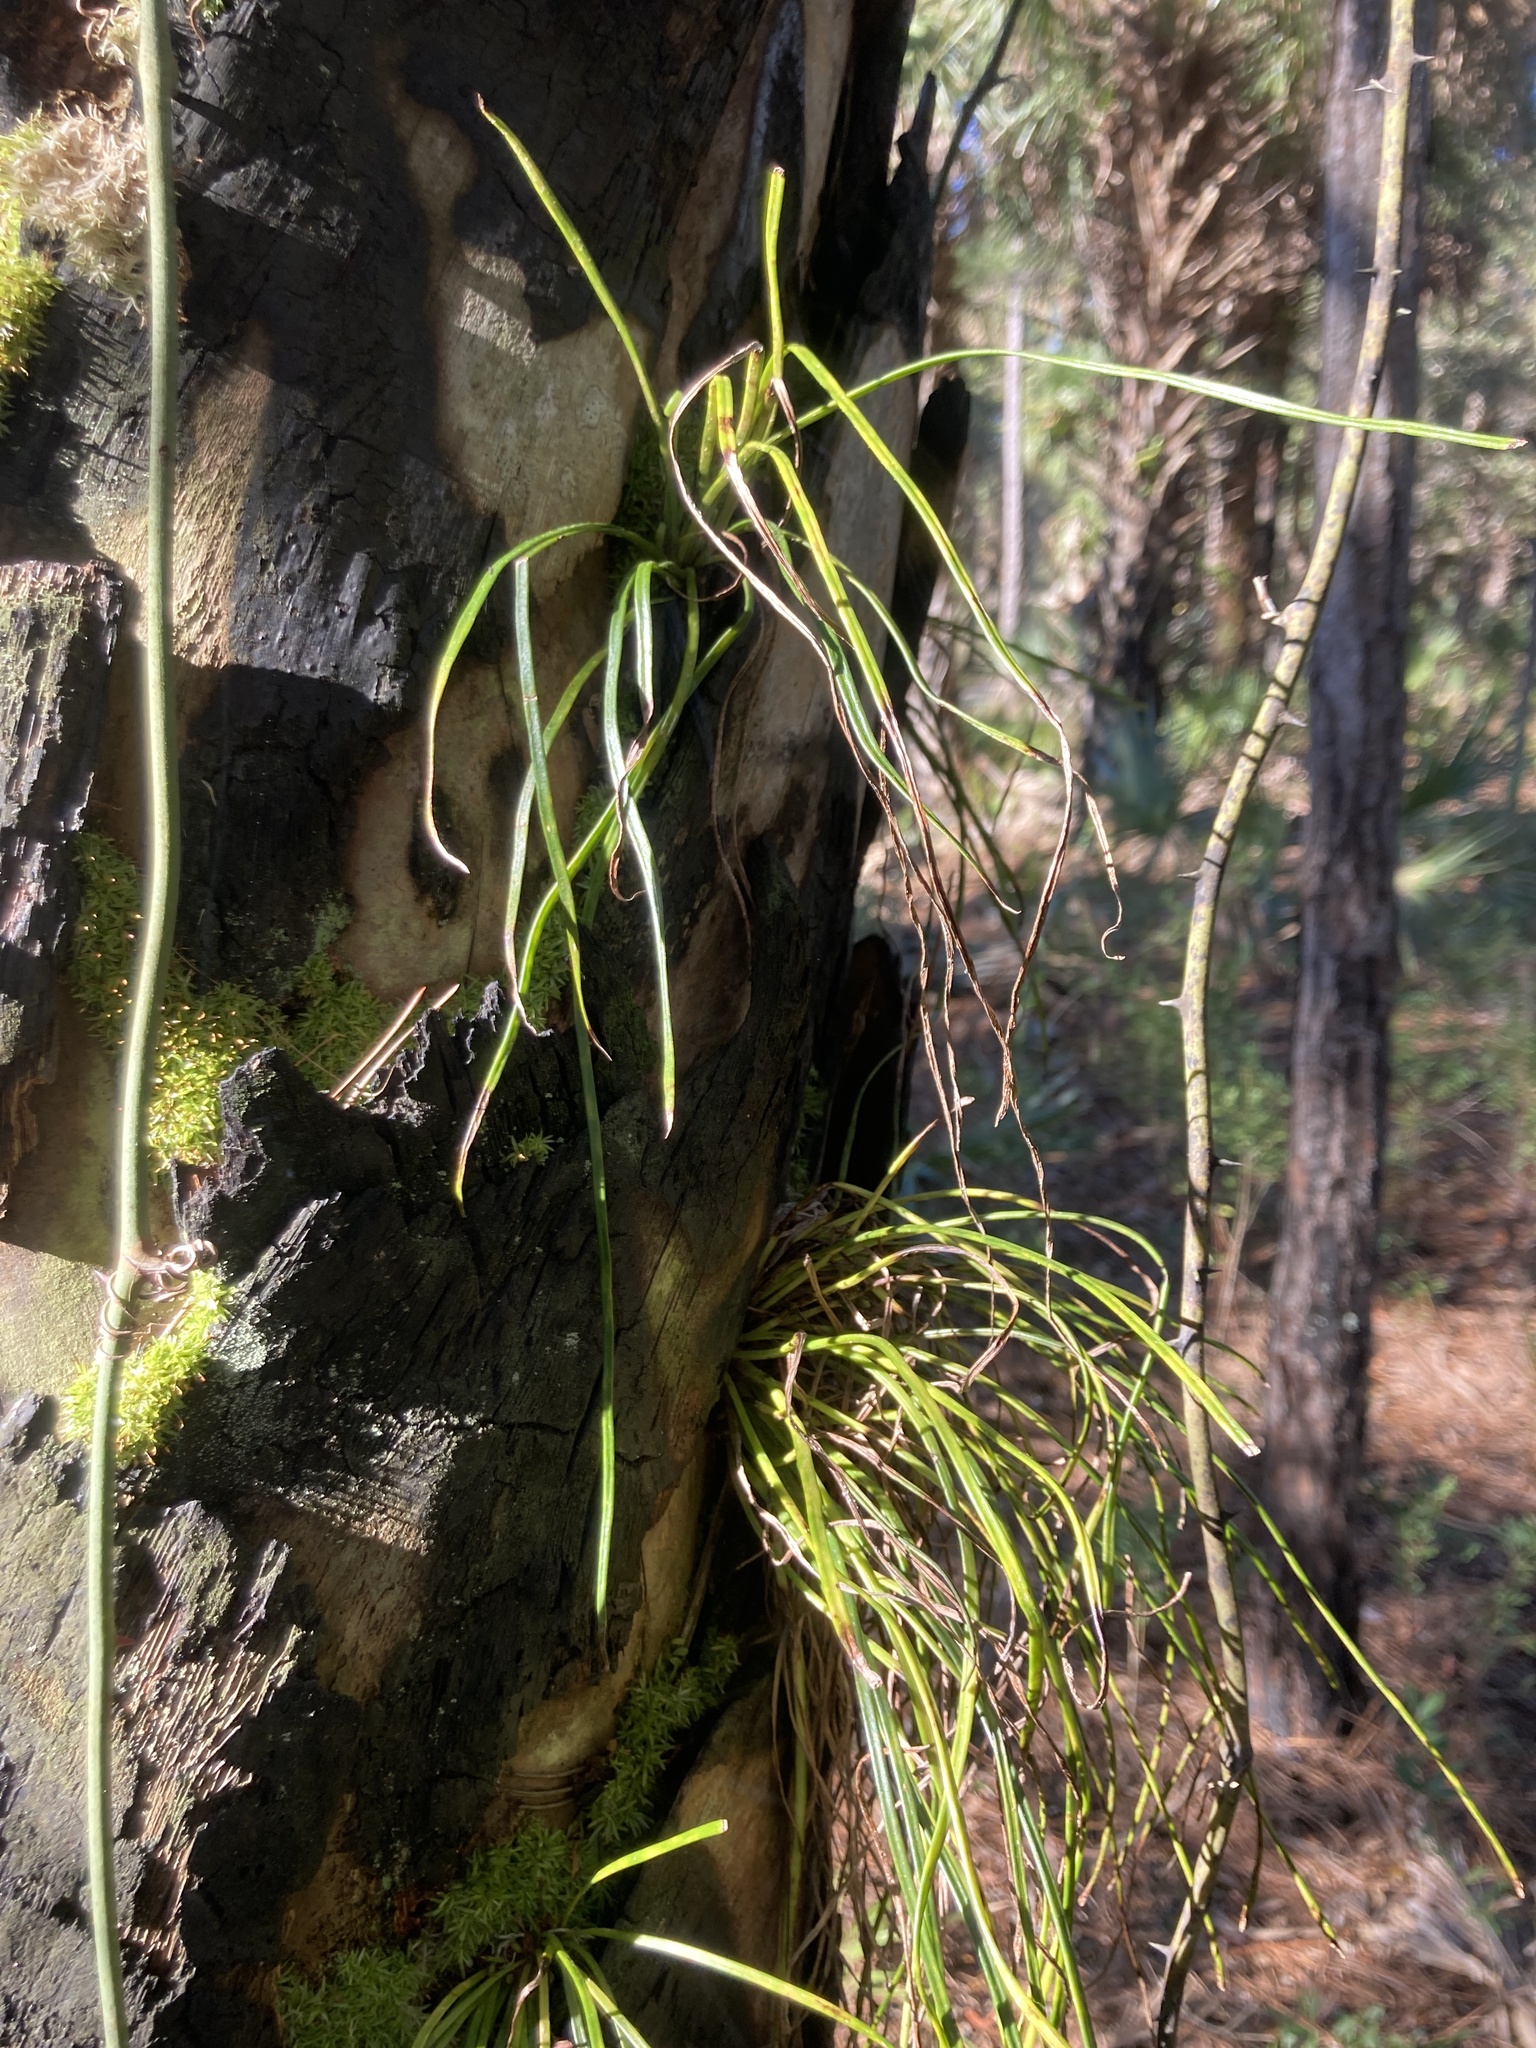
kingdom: Plantae
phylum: Tracheophyta
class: Polypodiopsida
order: Polypodiales
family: Pteridaceae
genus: Vittaria
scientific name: Vittaria lineata
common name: Shoestring fern
